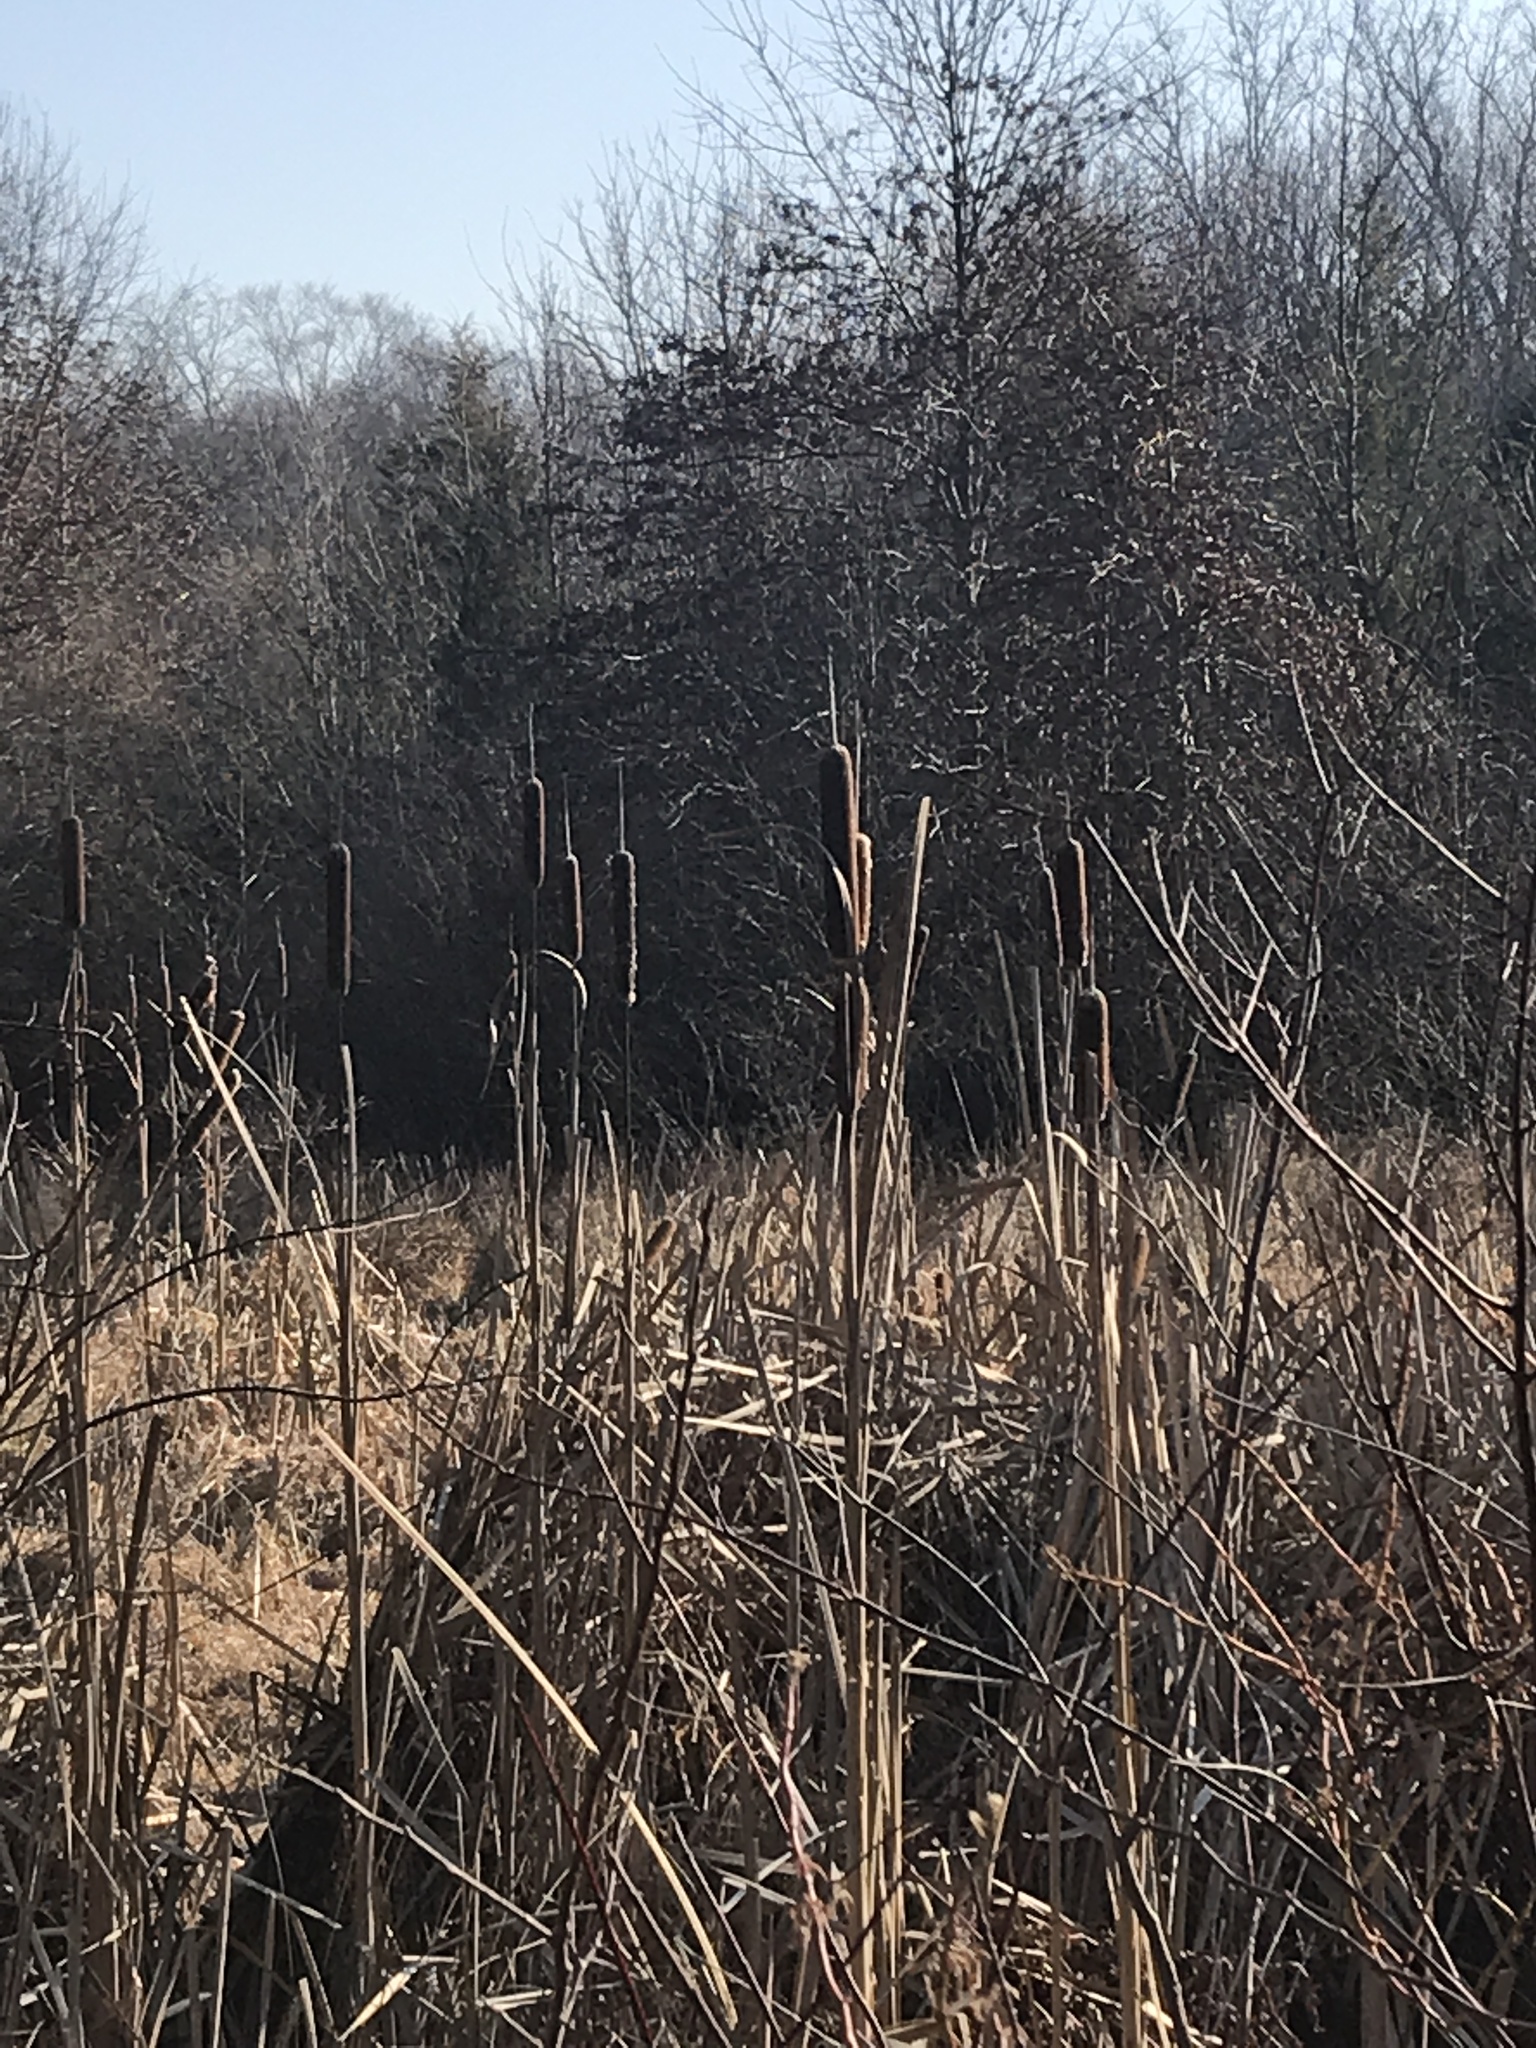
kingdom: Plantae
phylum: Tracheophyta
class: Liliopsida
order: Poales
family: Typhaceae
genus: Typha
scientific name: Typha latifolia
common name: Broadleaf cattail
